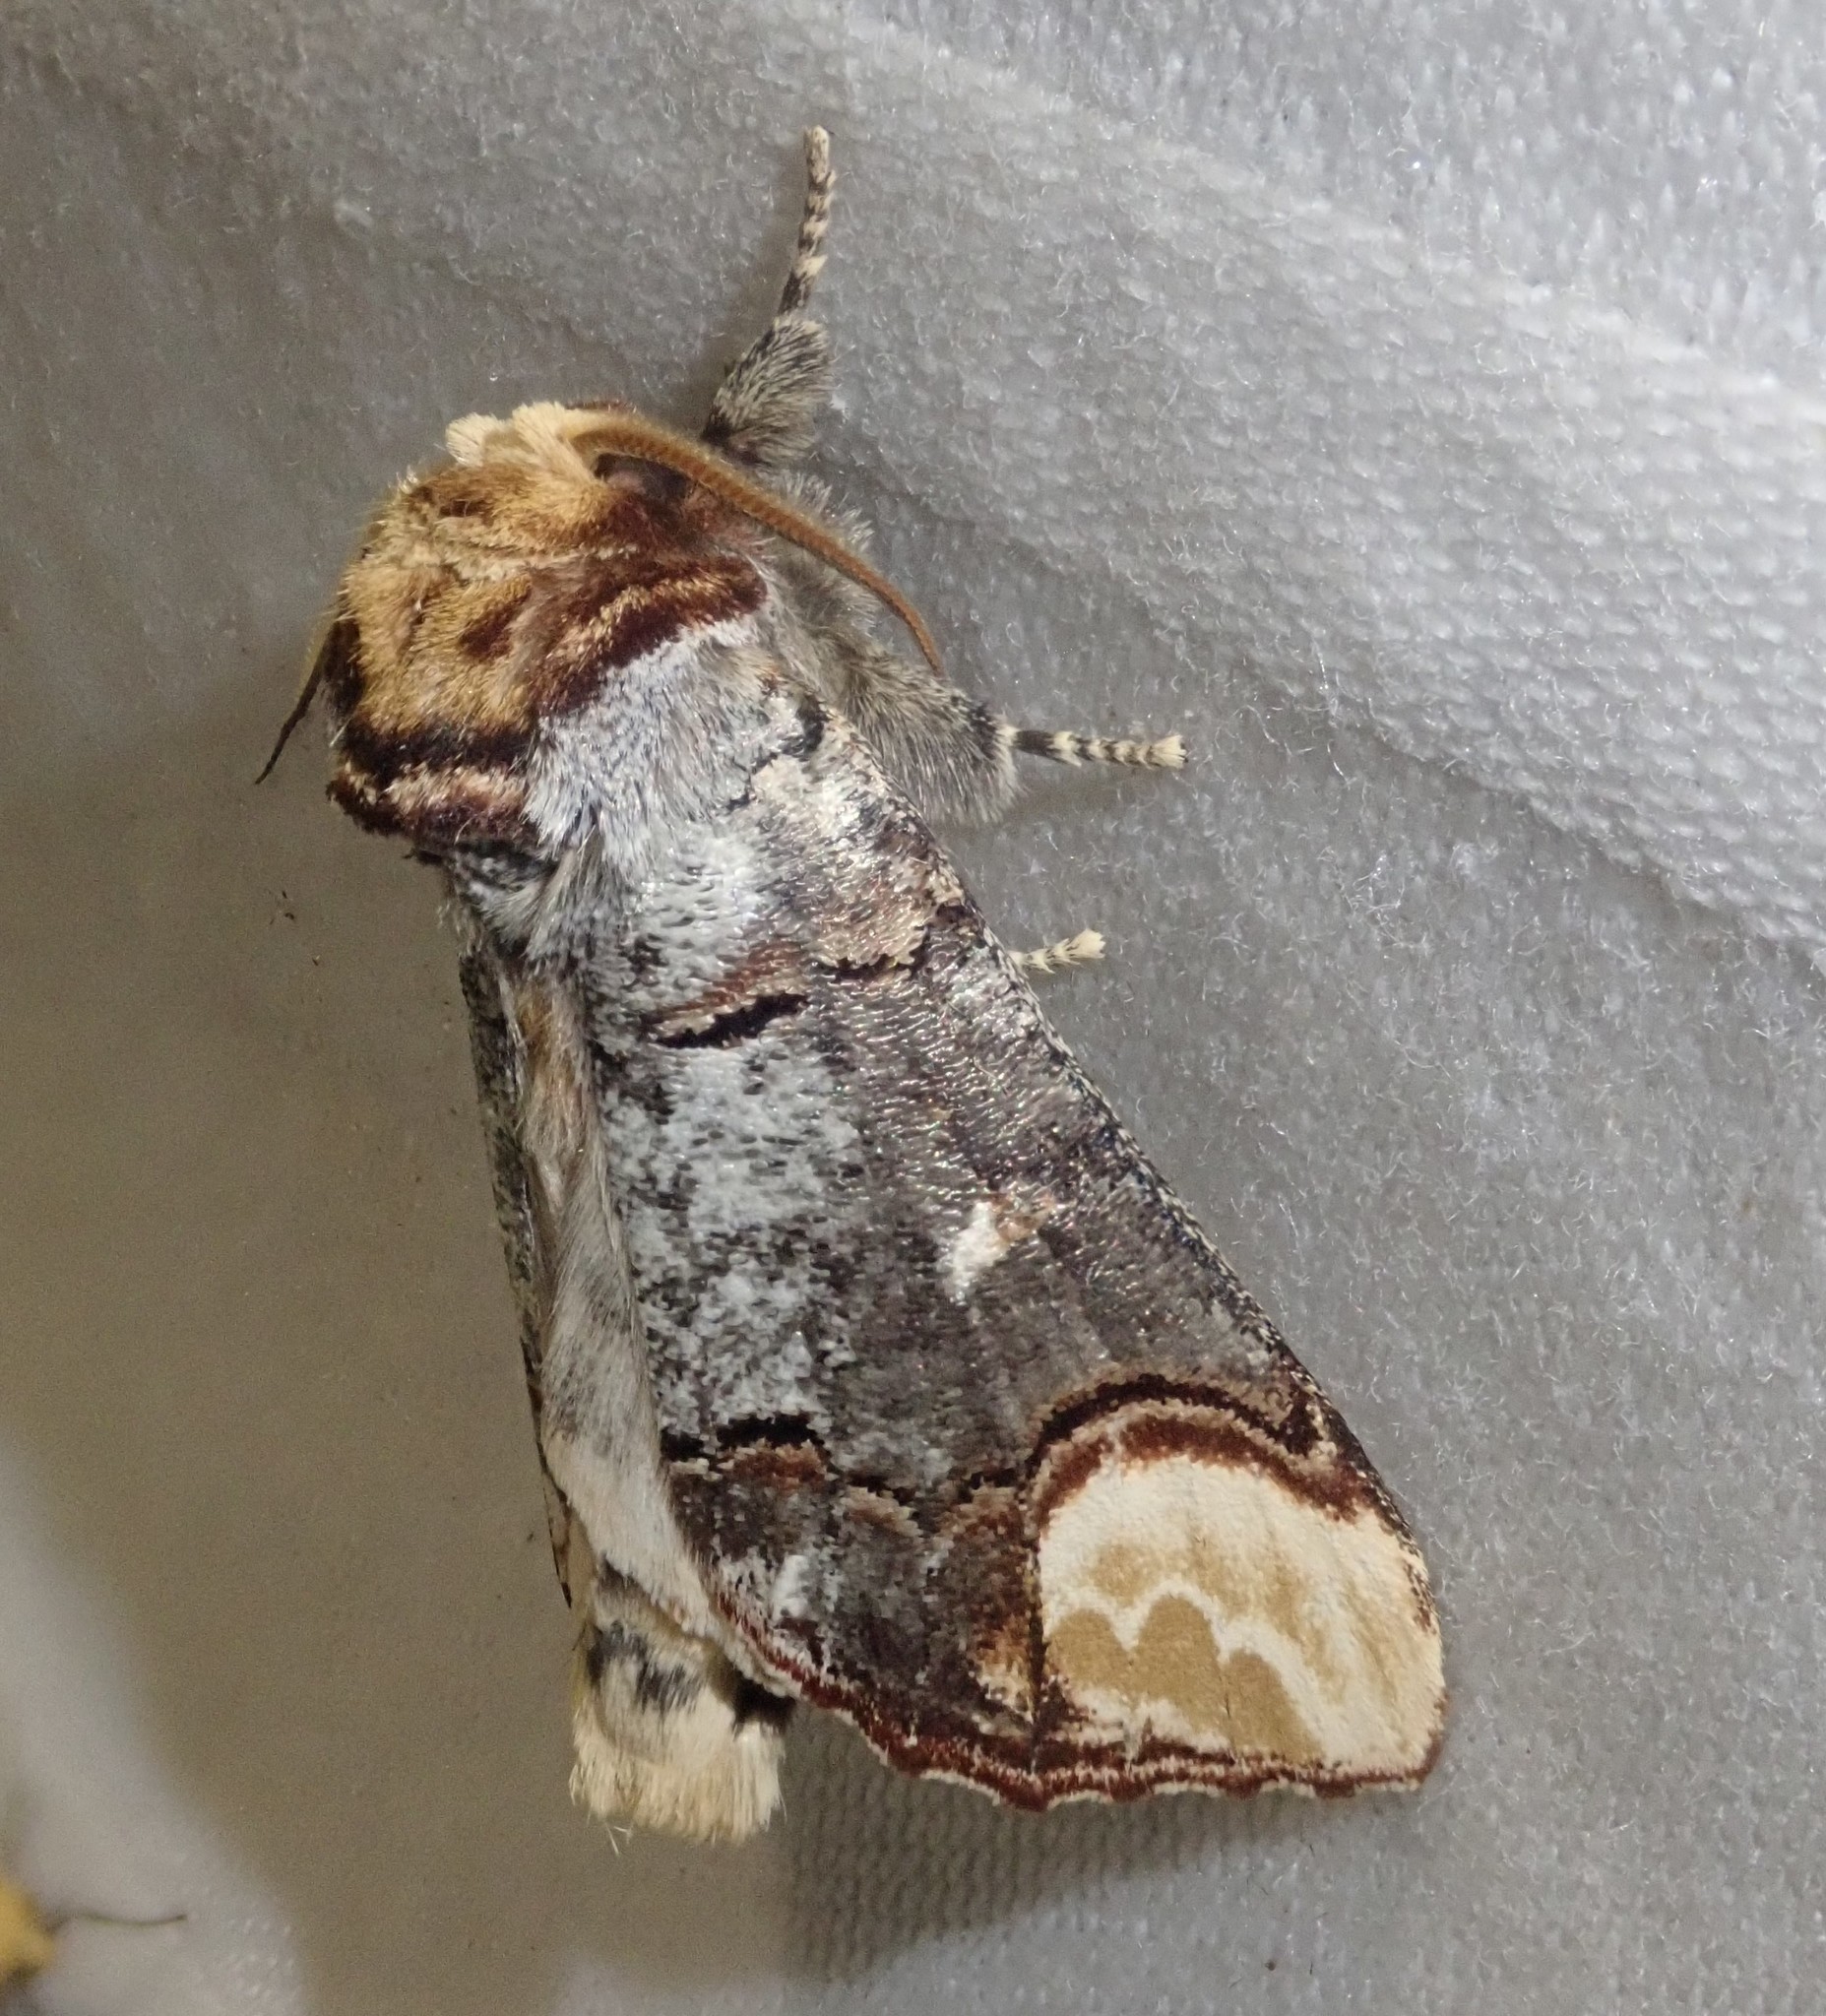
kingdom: Animalia
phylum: Arthropoda
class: Insecta
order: Lepidoptera
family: Notodontidae
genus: Phalera
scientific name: Phalera bucephala
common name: Buff-tip
